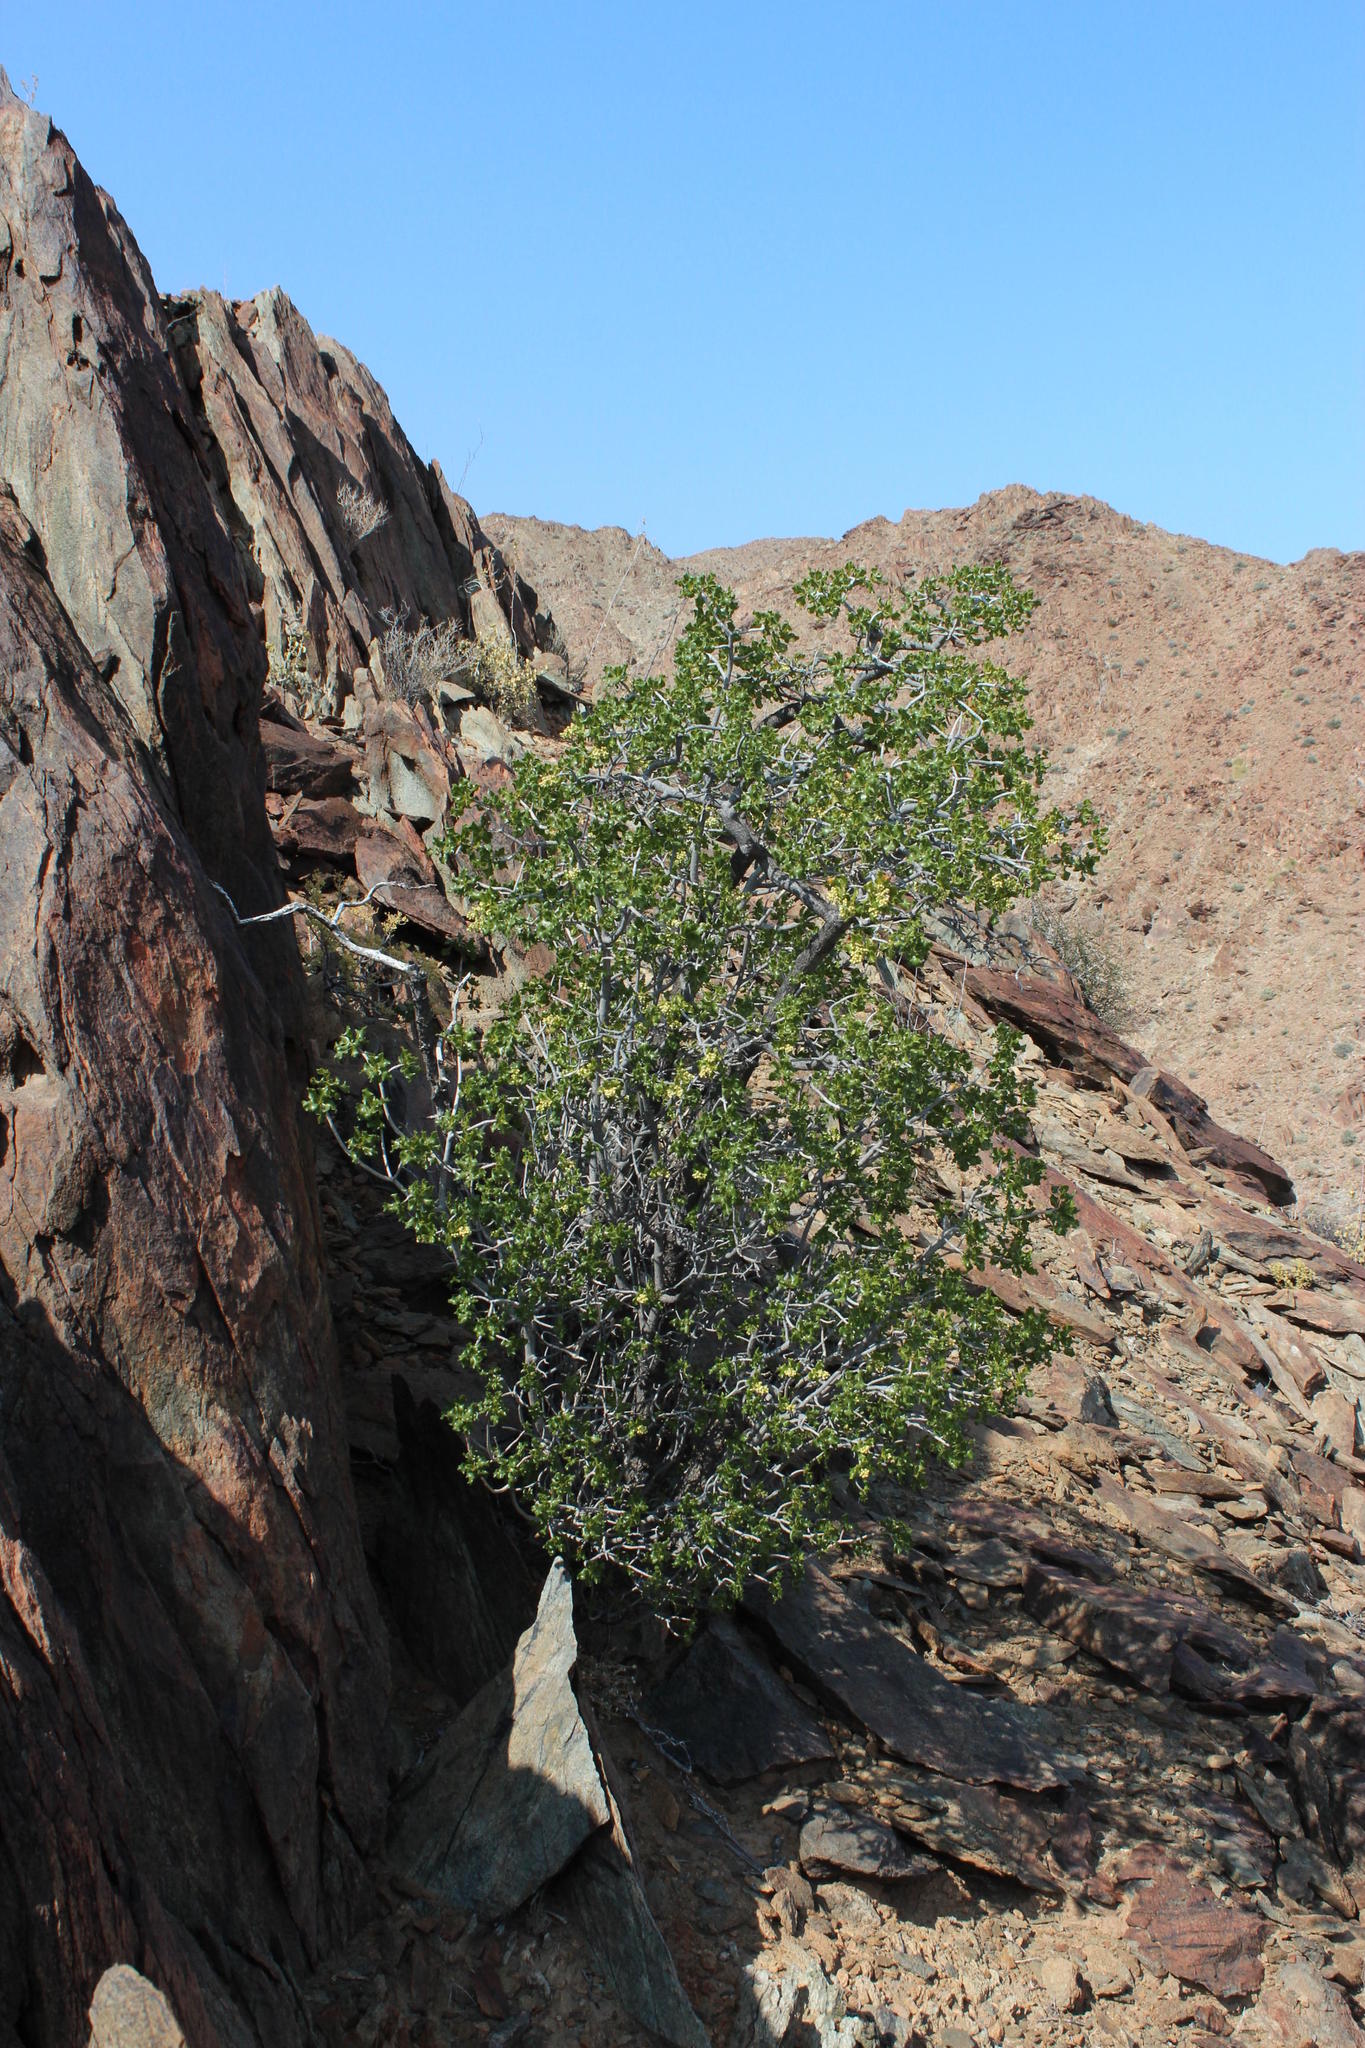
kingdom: Plantae
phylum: Tracheophyta
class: Magnoliopsida
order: Sapindales
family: Anacardiaceae
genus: Ozoroa
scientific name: Ozoroa concolor
